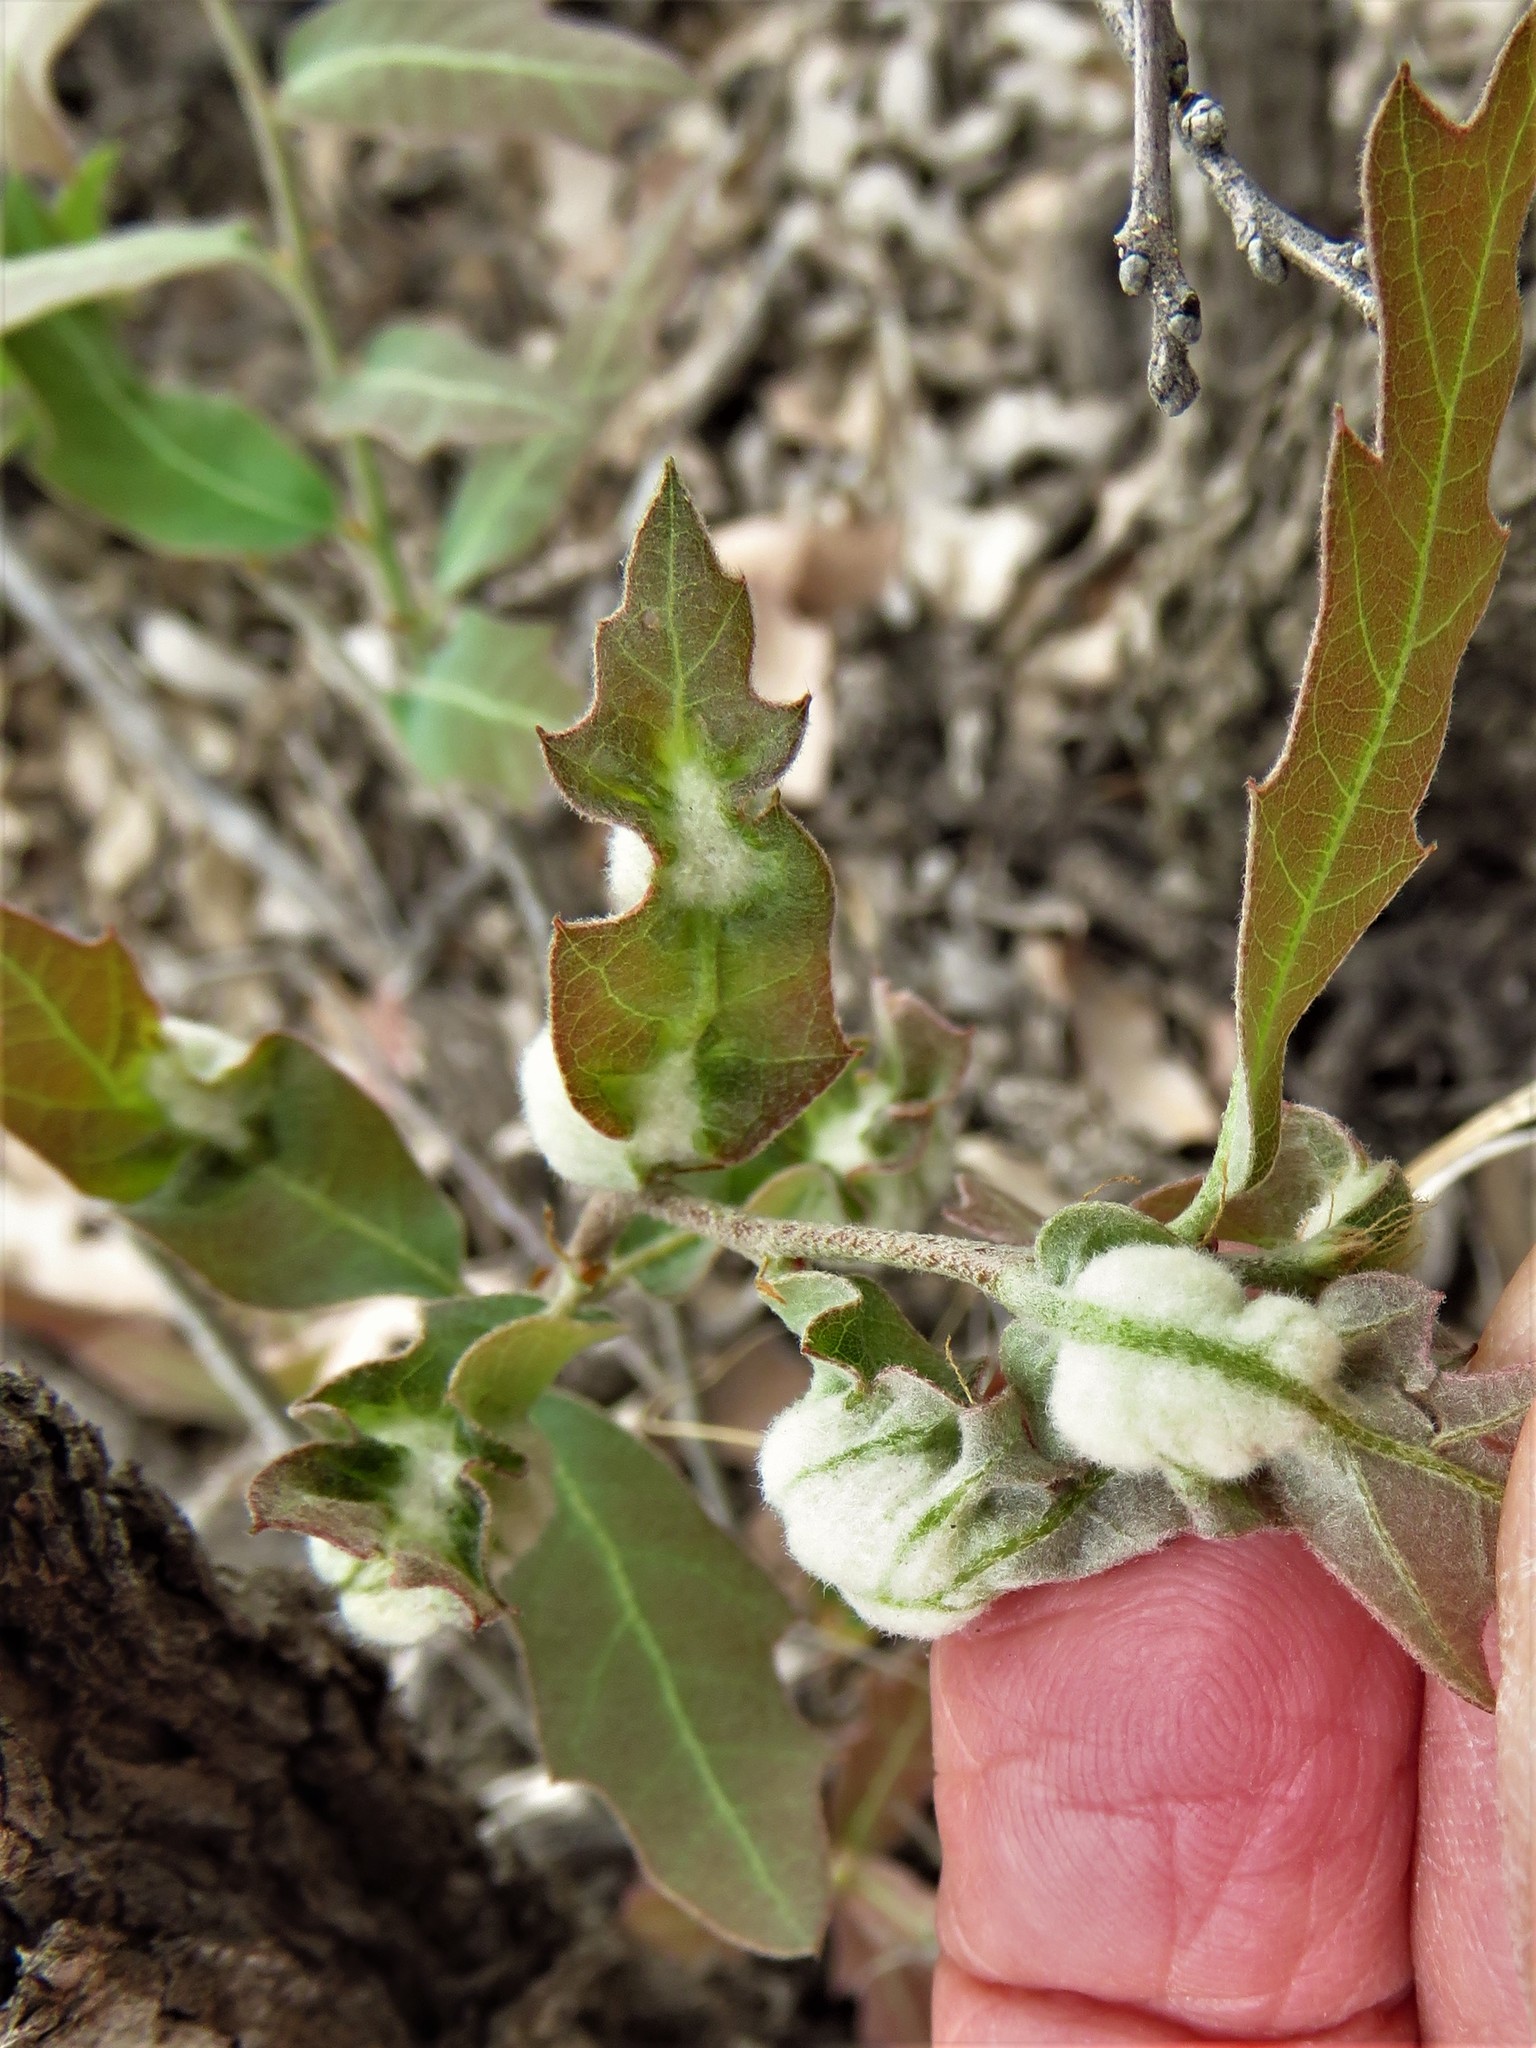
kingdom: Animalia
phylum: Arthropoda
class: Insecta
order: Diptera
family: Cecidomyiidae
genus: Macrodiplosis
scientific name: Macrodiplosis niveipila
